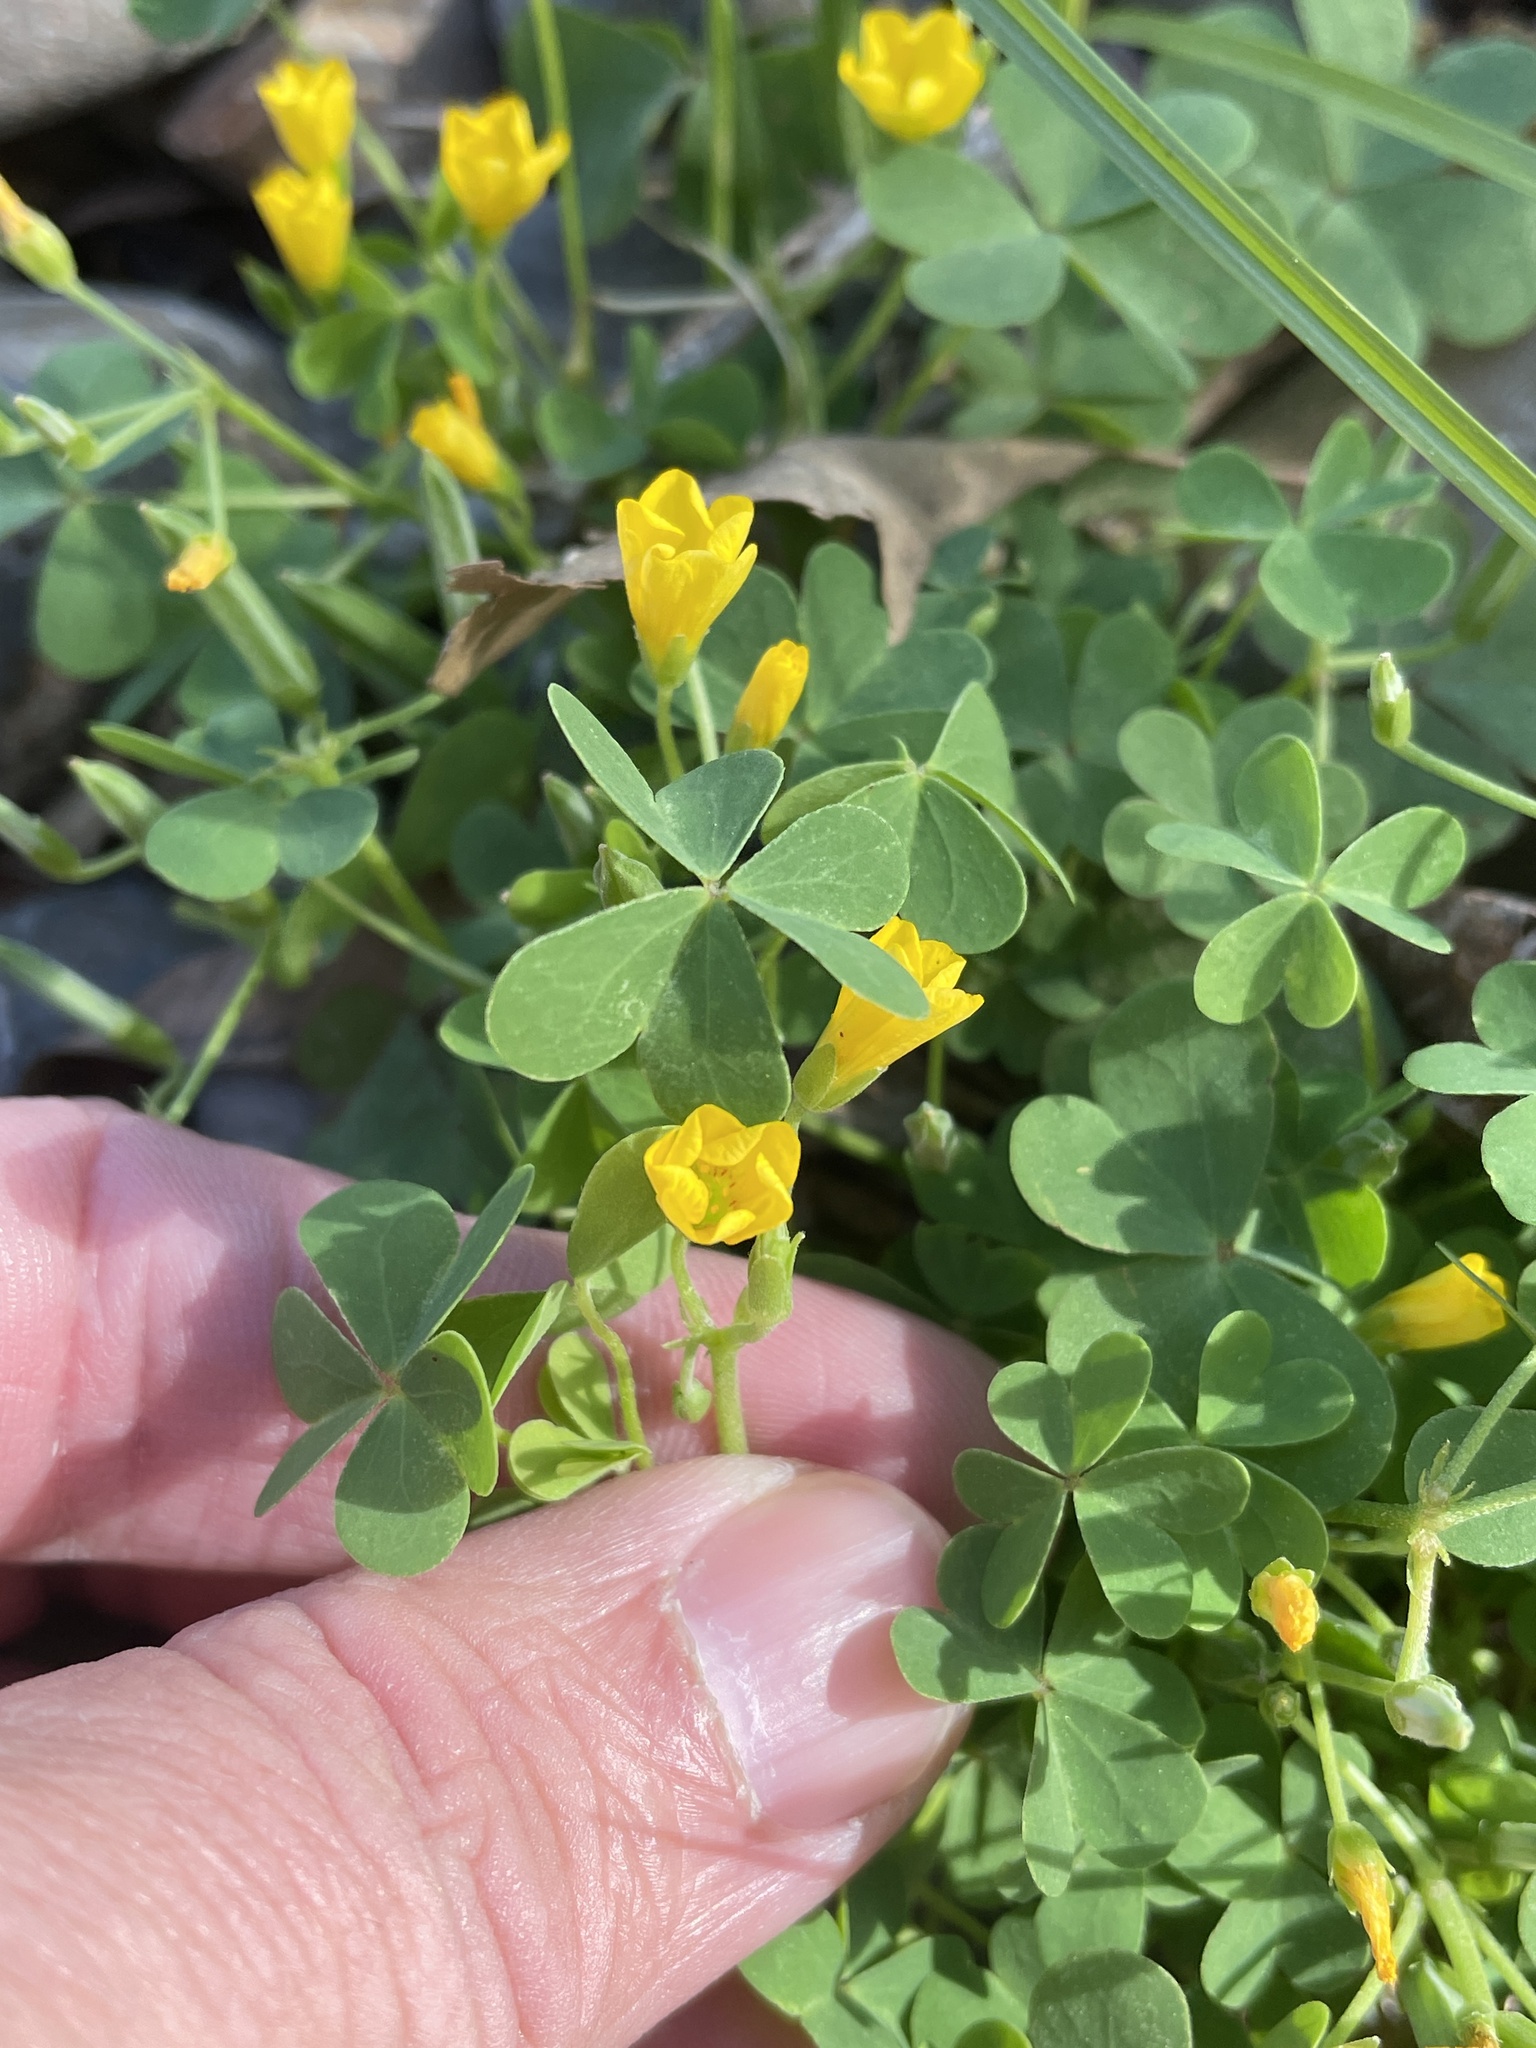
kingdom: Plantae
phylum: Tracheophyta
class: Magnoliopsida
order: Oxalidales
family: Oxalidaceae
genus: Oxalis
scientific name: Oxalis dillenii
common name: Sussex yellow-sorrel
